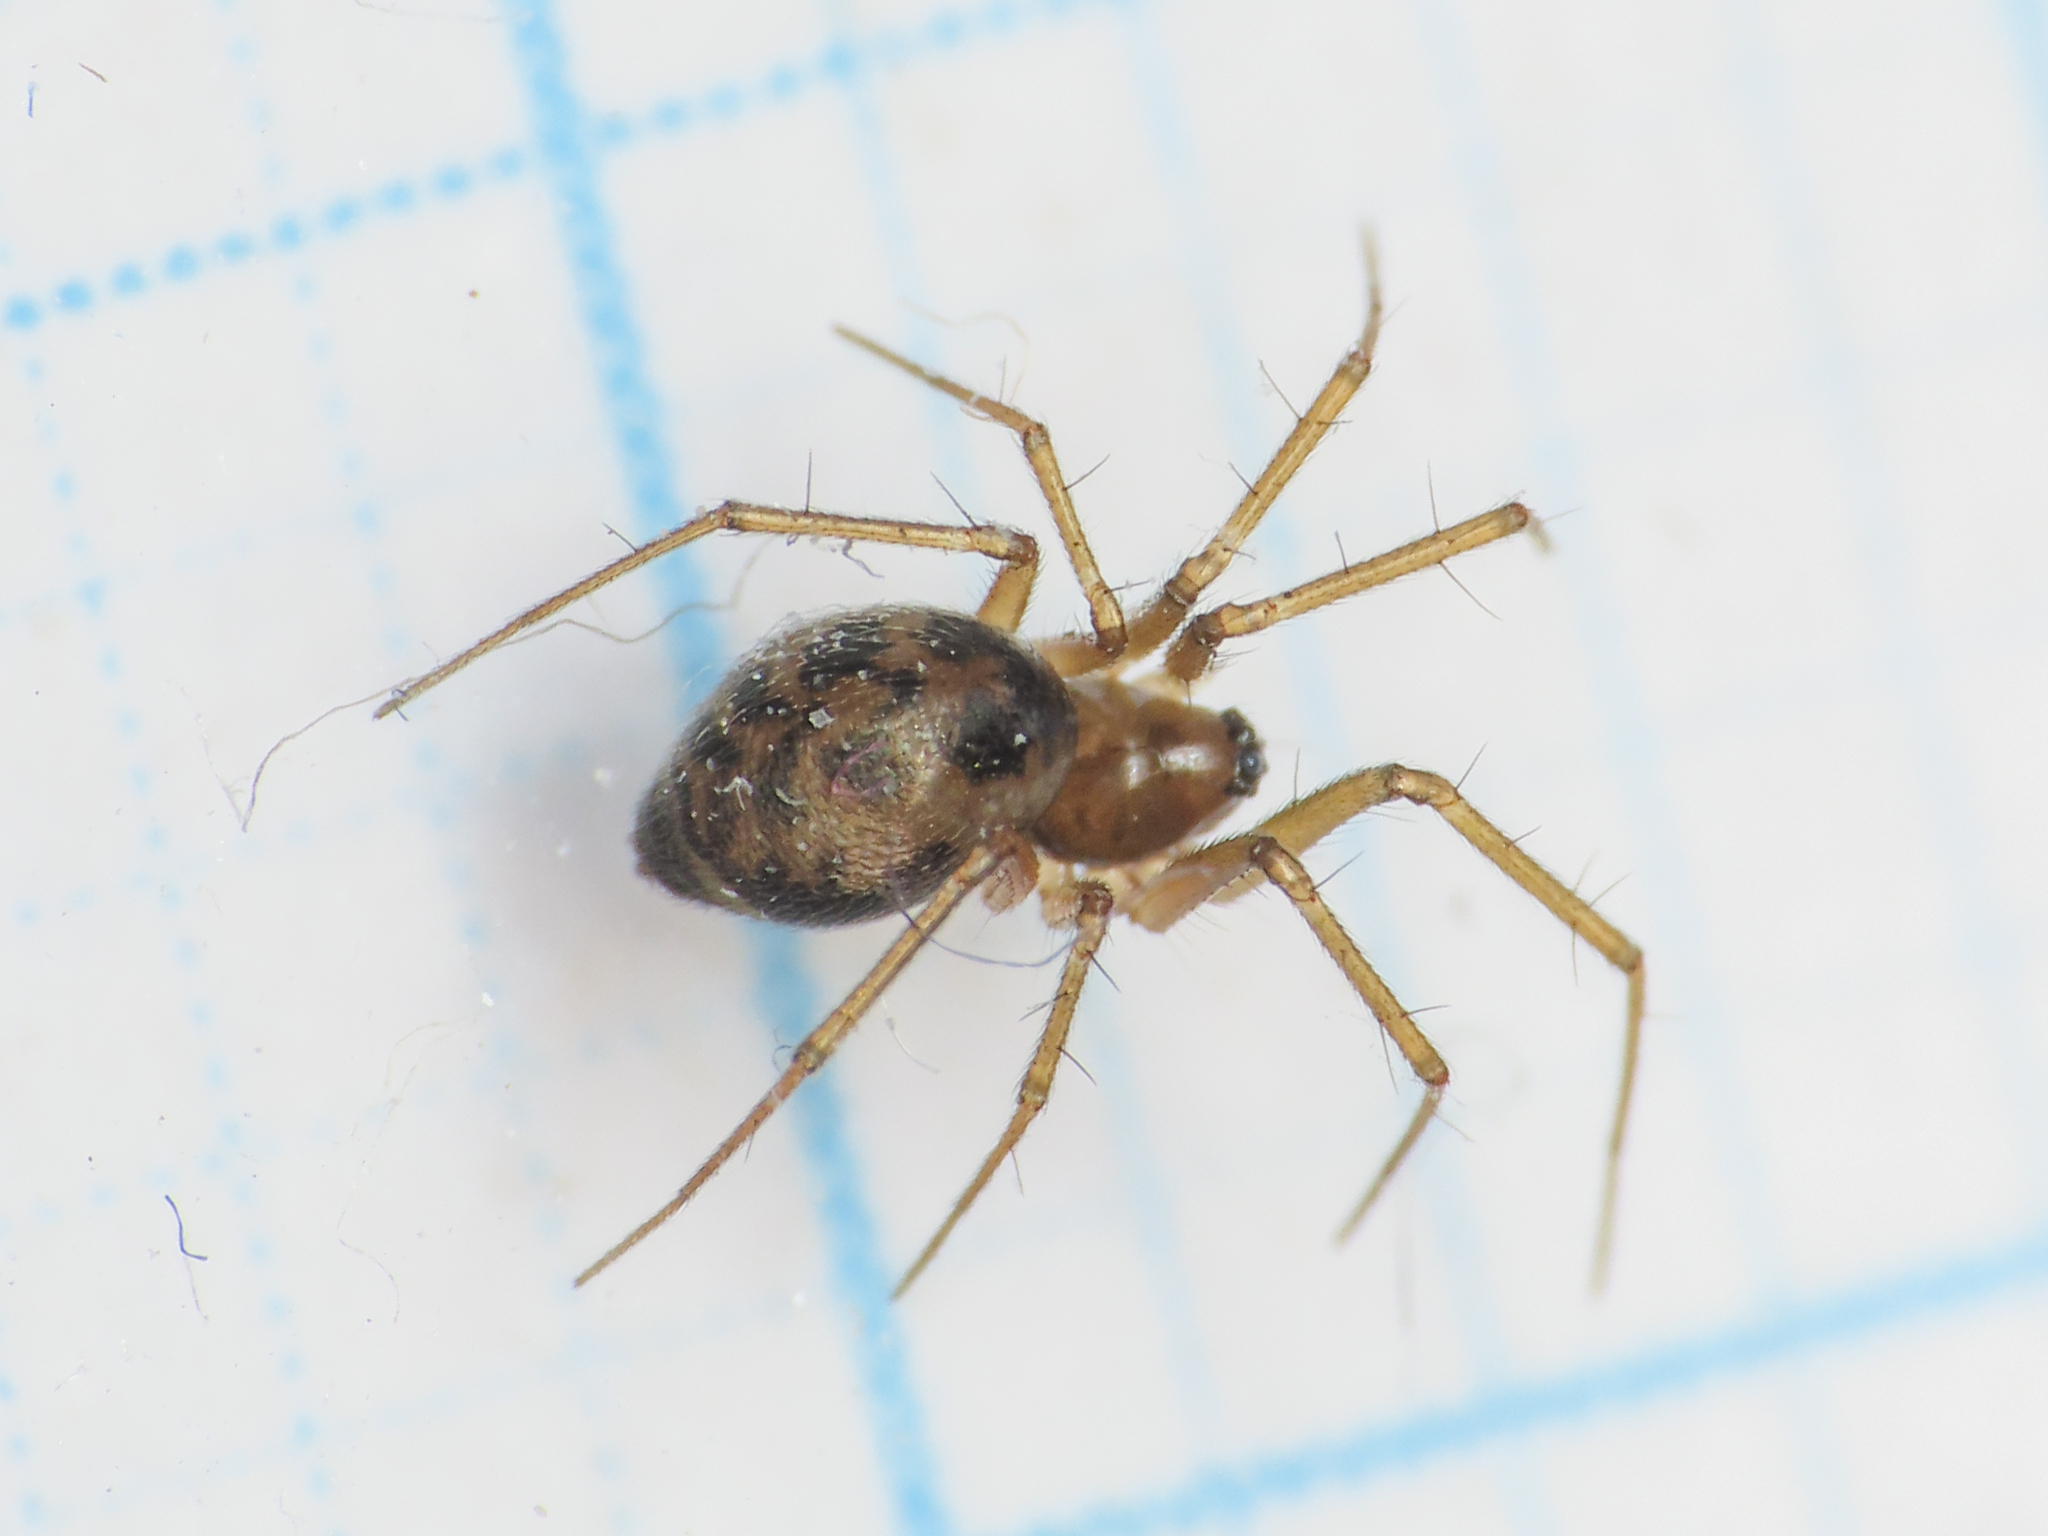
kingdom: Animalia
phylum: Arthropoda
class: Arachnida
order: Araneae
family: Linyphiidae
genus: Tenuiphantes
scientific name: Tenuiphantes tenuis
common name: Dwarf weaver
